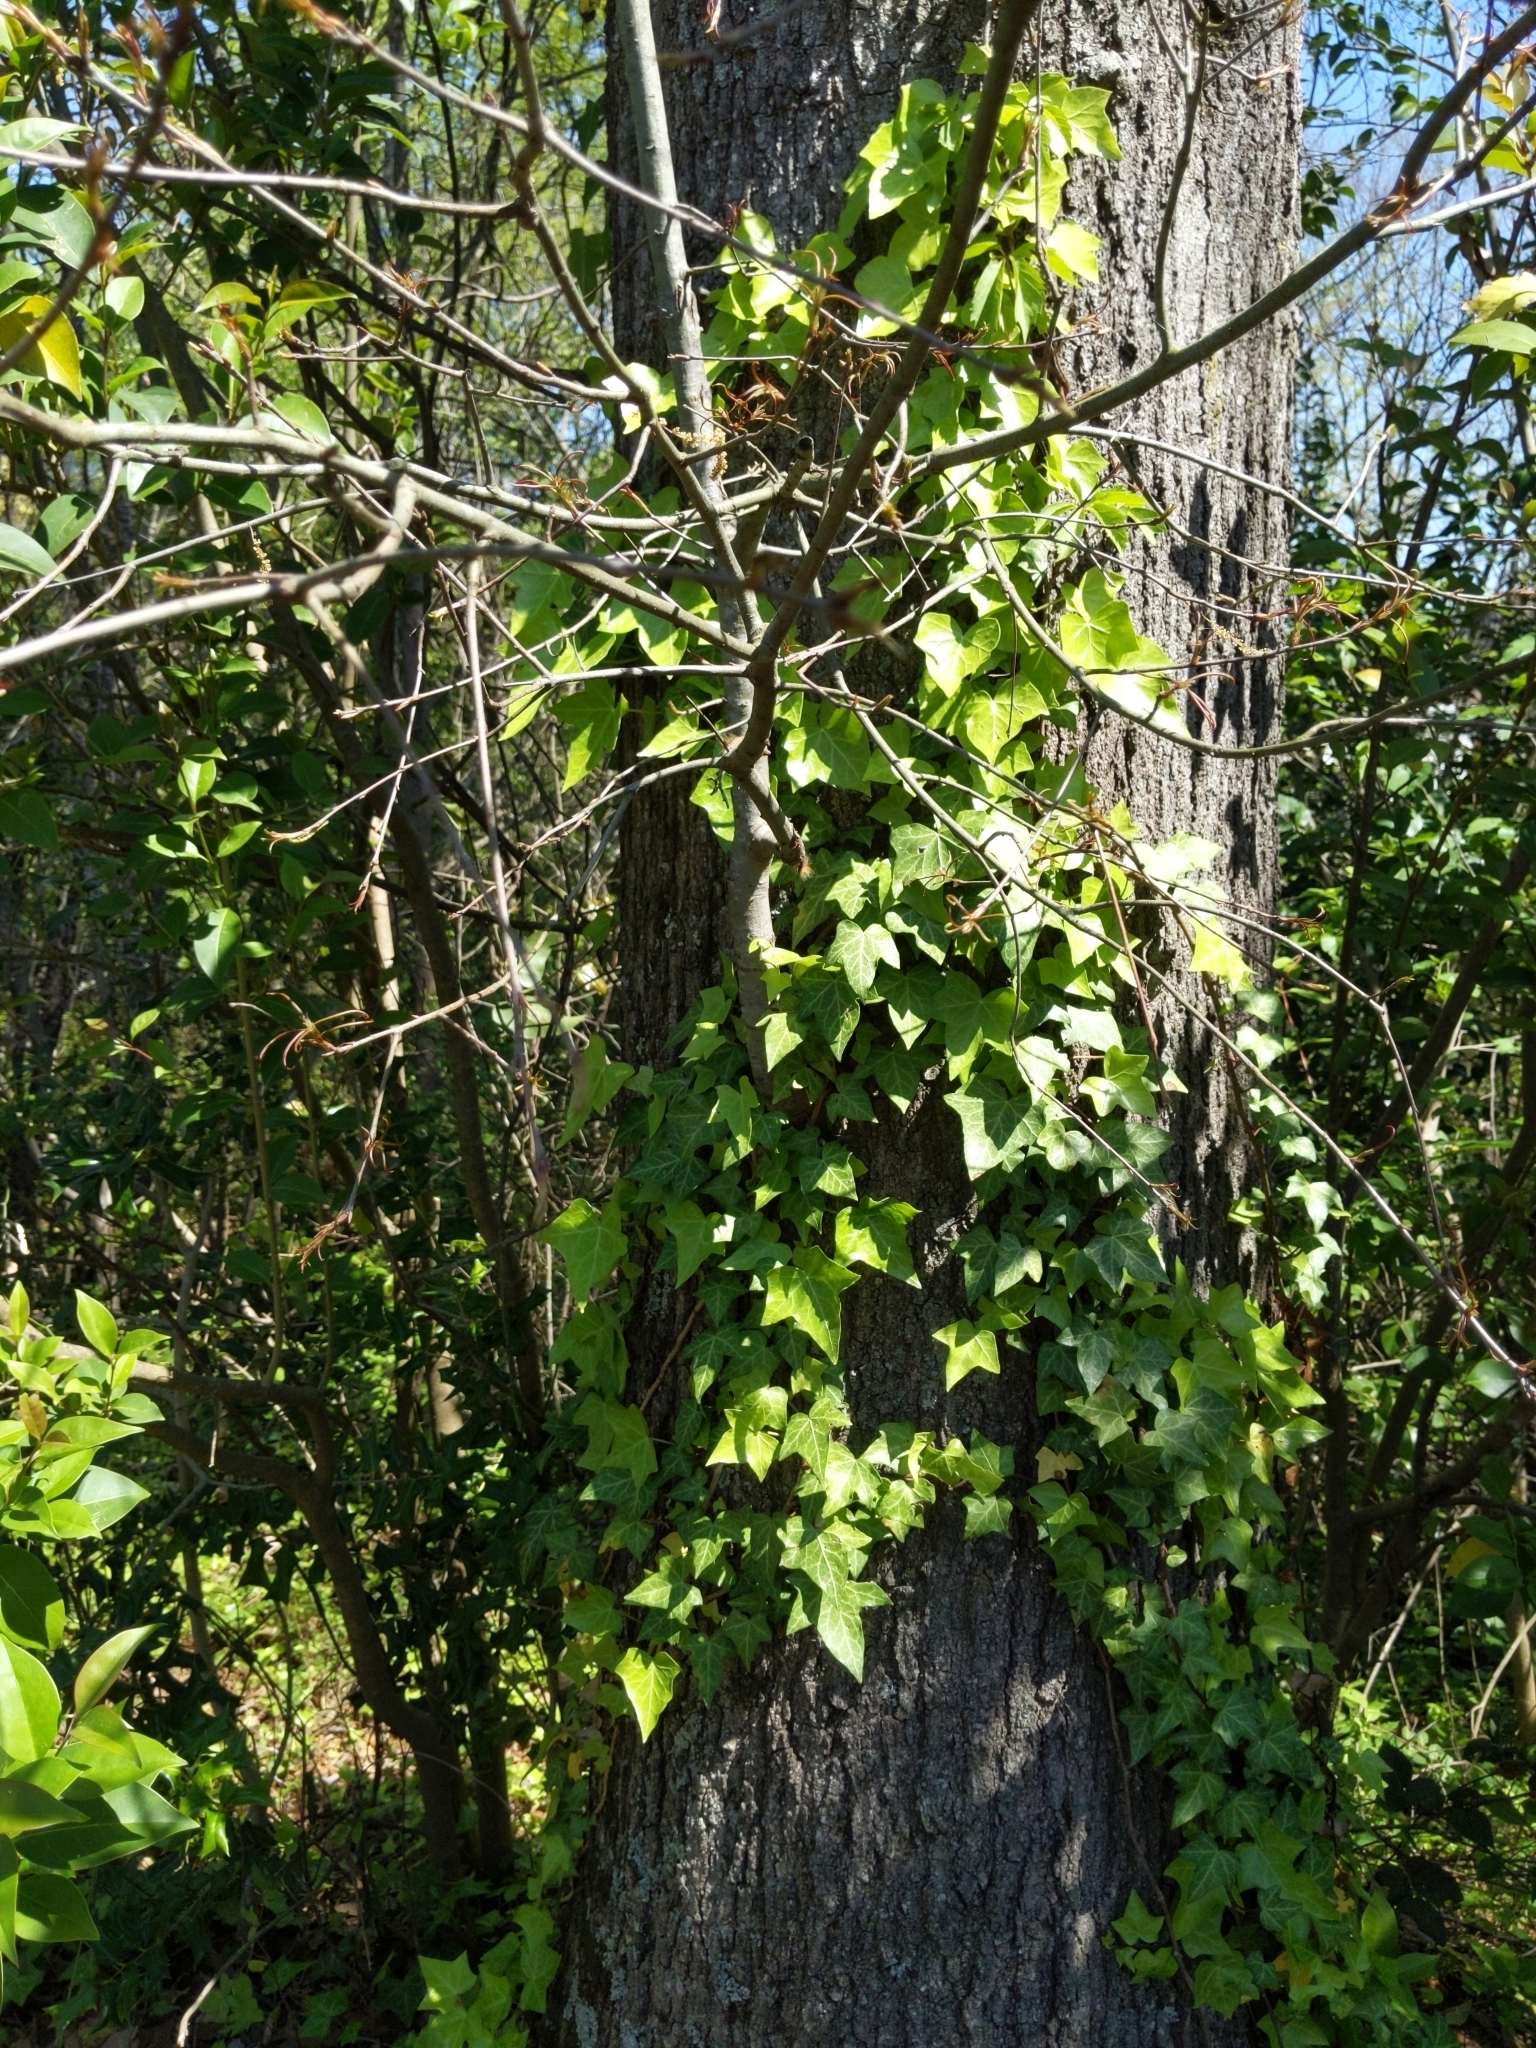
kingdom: Animalia
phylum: Arthropoda
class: Insecta
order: Lepidoptera
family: Lasiocampidae
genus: Malacosoma
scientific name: Malacosoma americana
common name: Eastern tent caterpillar moth
